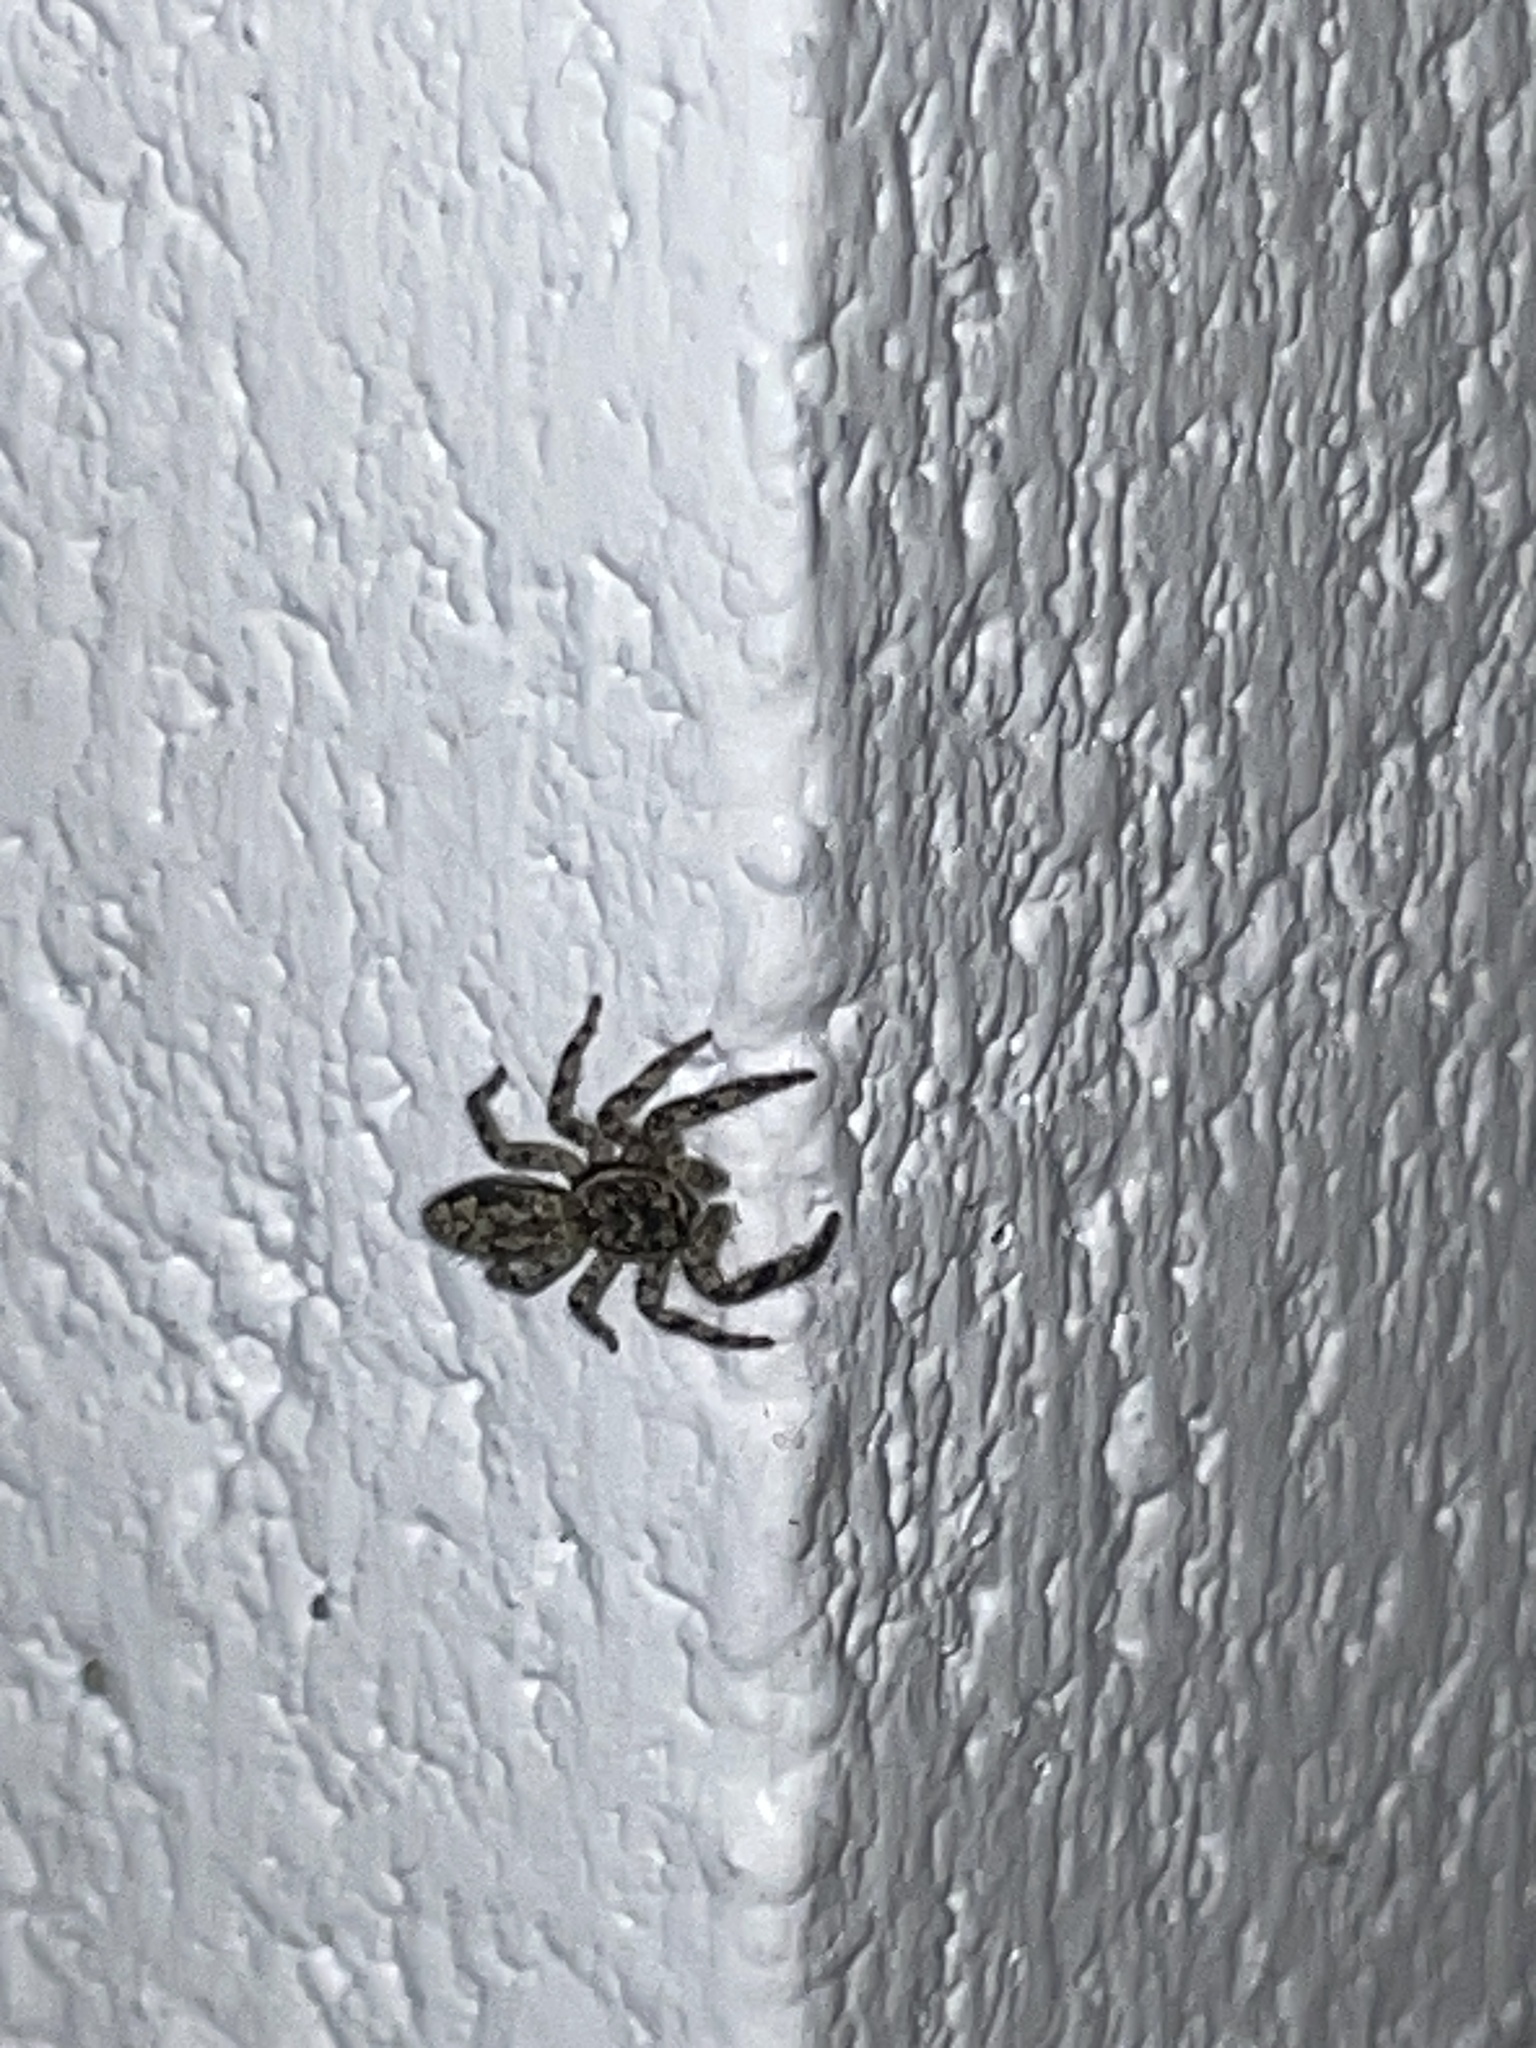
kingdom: Animalia
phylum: Arthropoda
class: Arachnida
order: Araneae
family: Salticidae
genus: Platycryptus
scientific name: Platycryptus undatus
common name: Tan jumping spider
